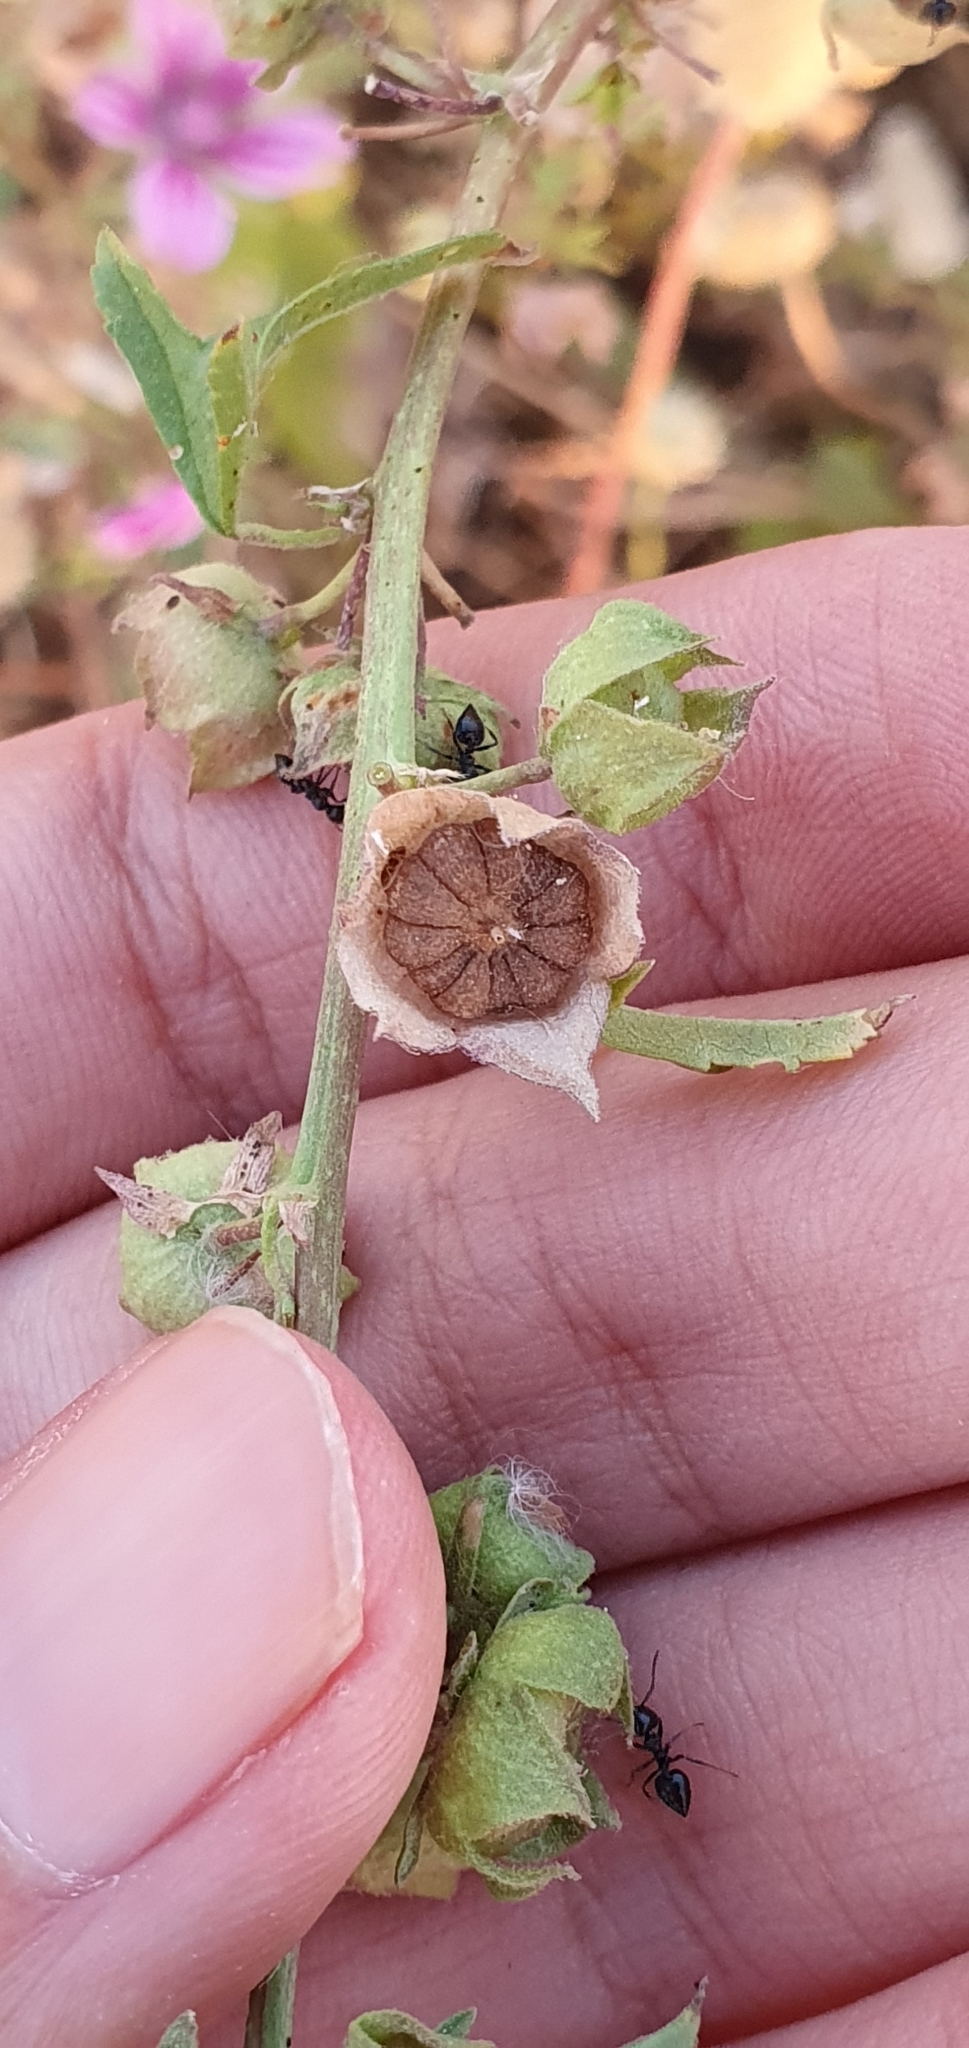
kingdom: Plantae
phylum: Tracheophyta
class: Magnoliopsida
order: Malvales
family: Malvaceae
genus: Malva
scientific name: Malva sylvestris
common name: Common mallow
